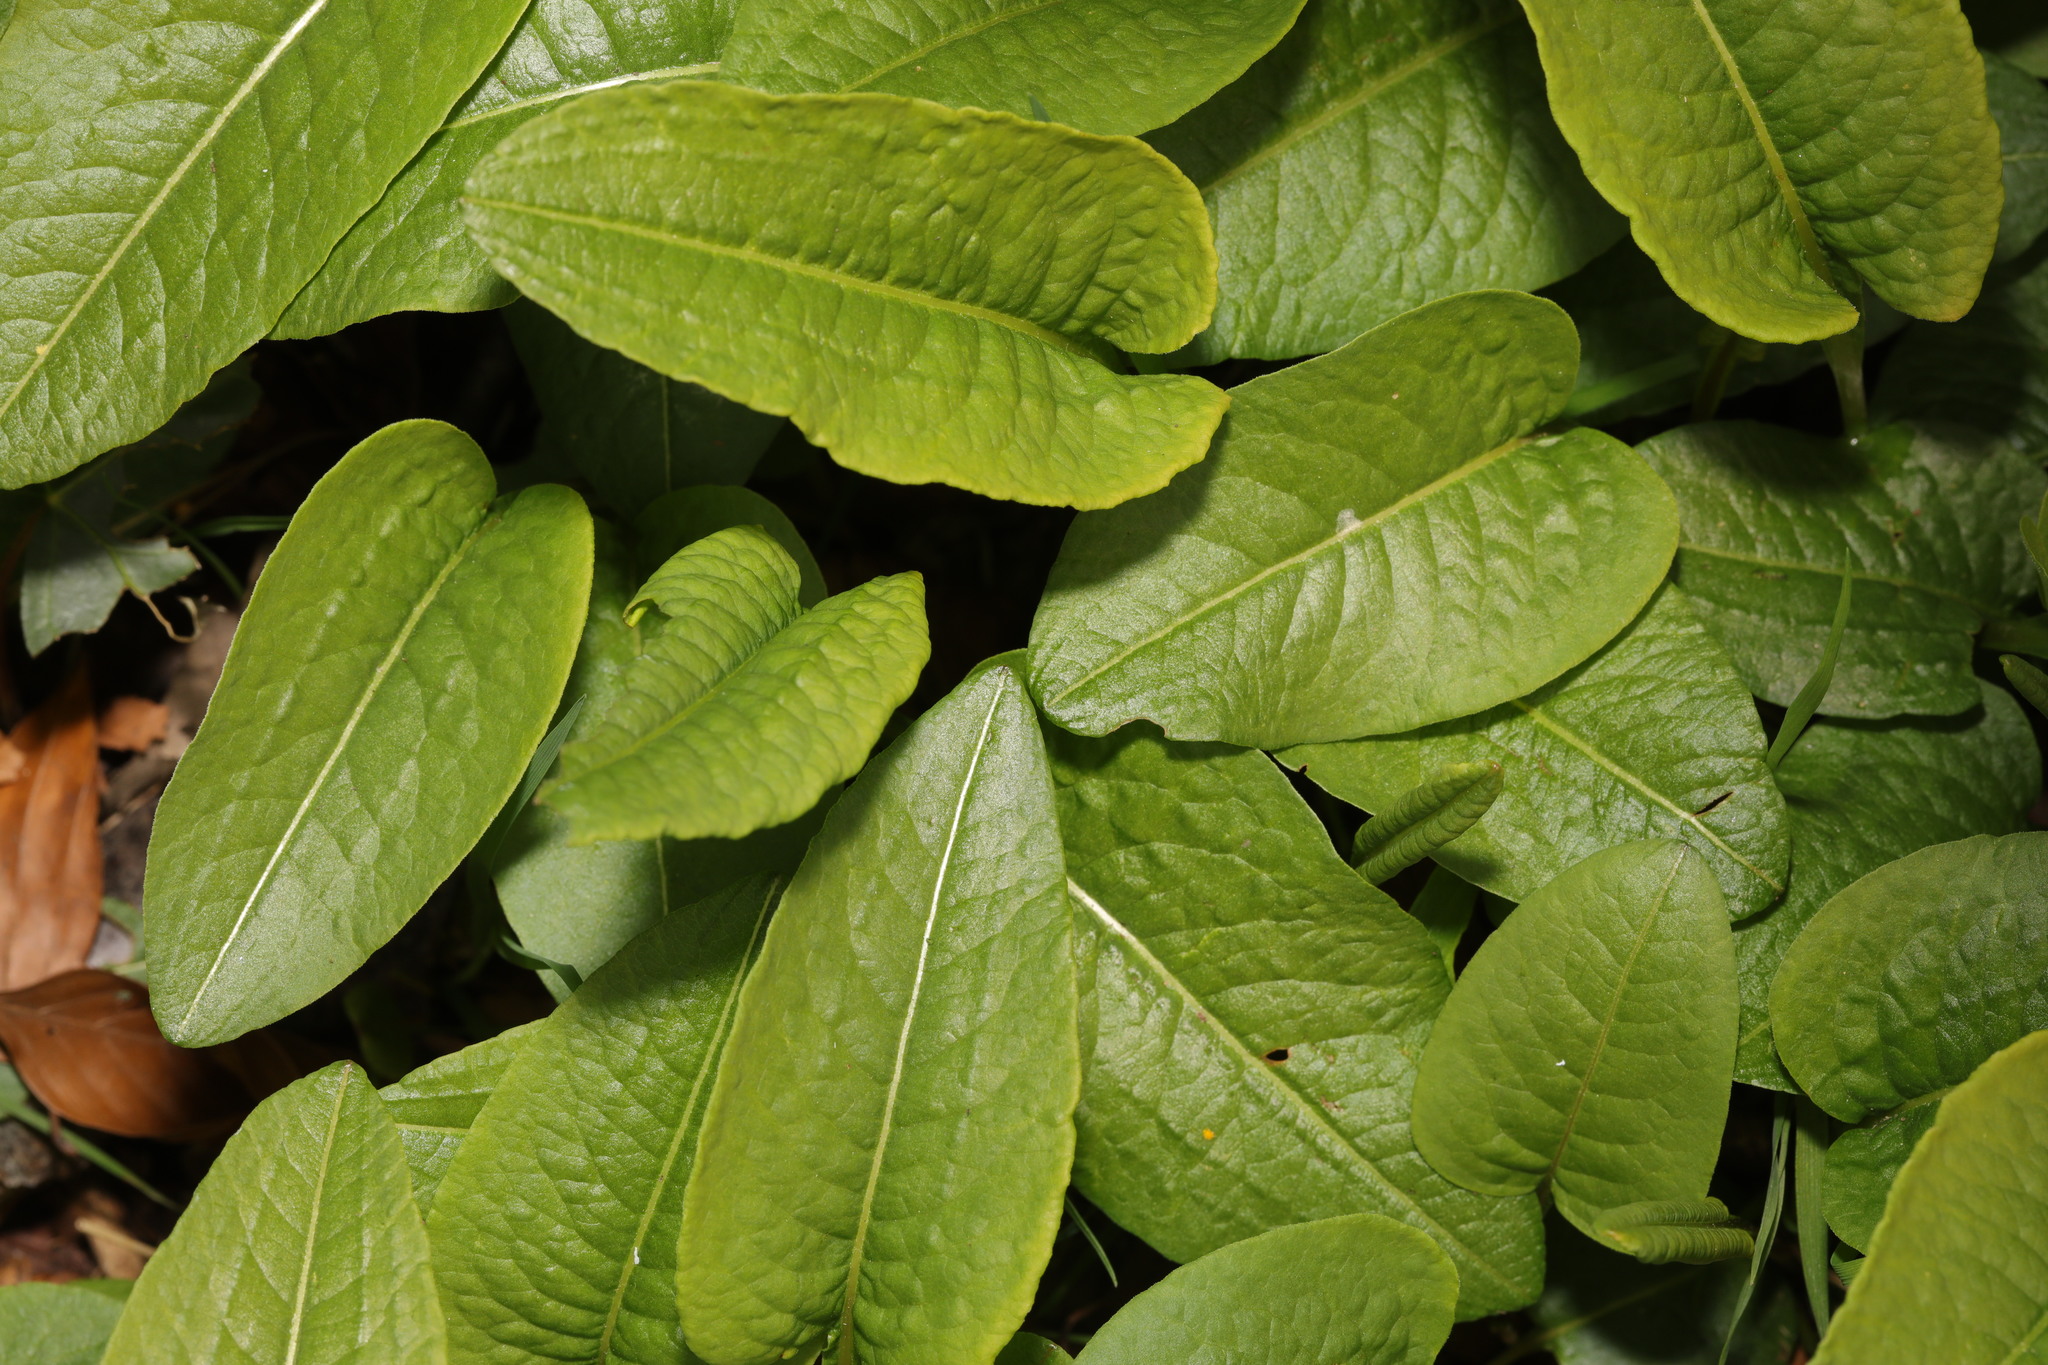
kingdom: Plantae
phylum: Tracheophyta
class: Magnoliopsida
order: Caryophyllales
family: Polygonaceae
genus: Bistorta
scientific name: Bistorta officinalis
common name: Common bistort
